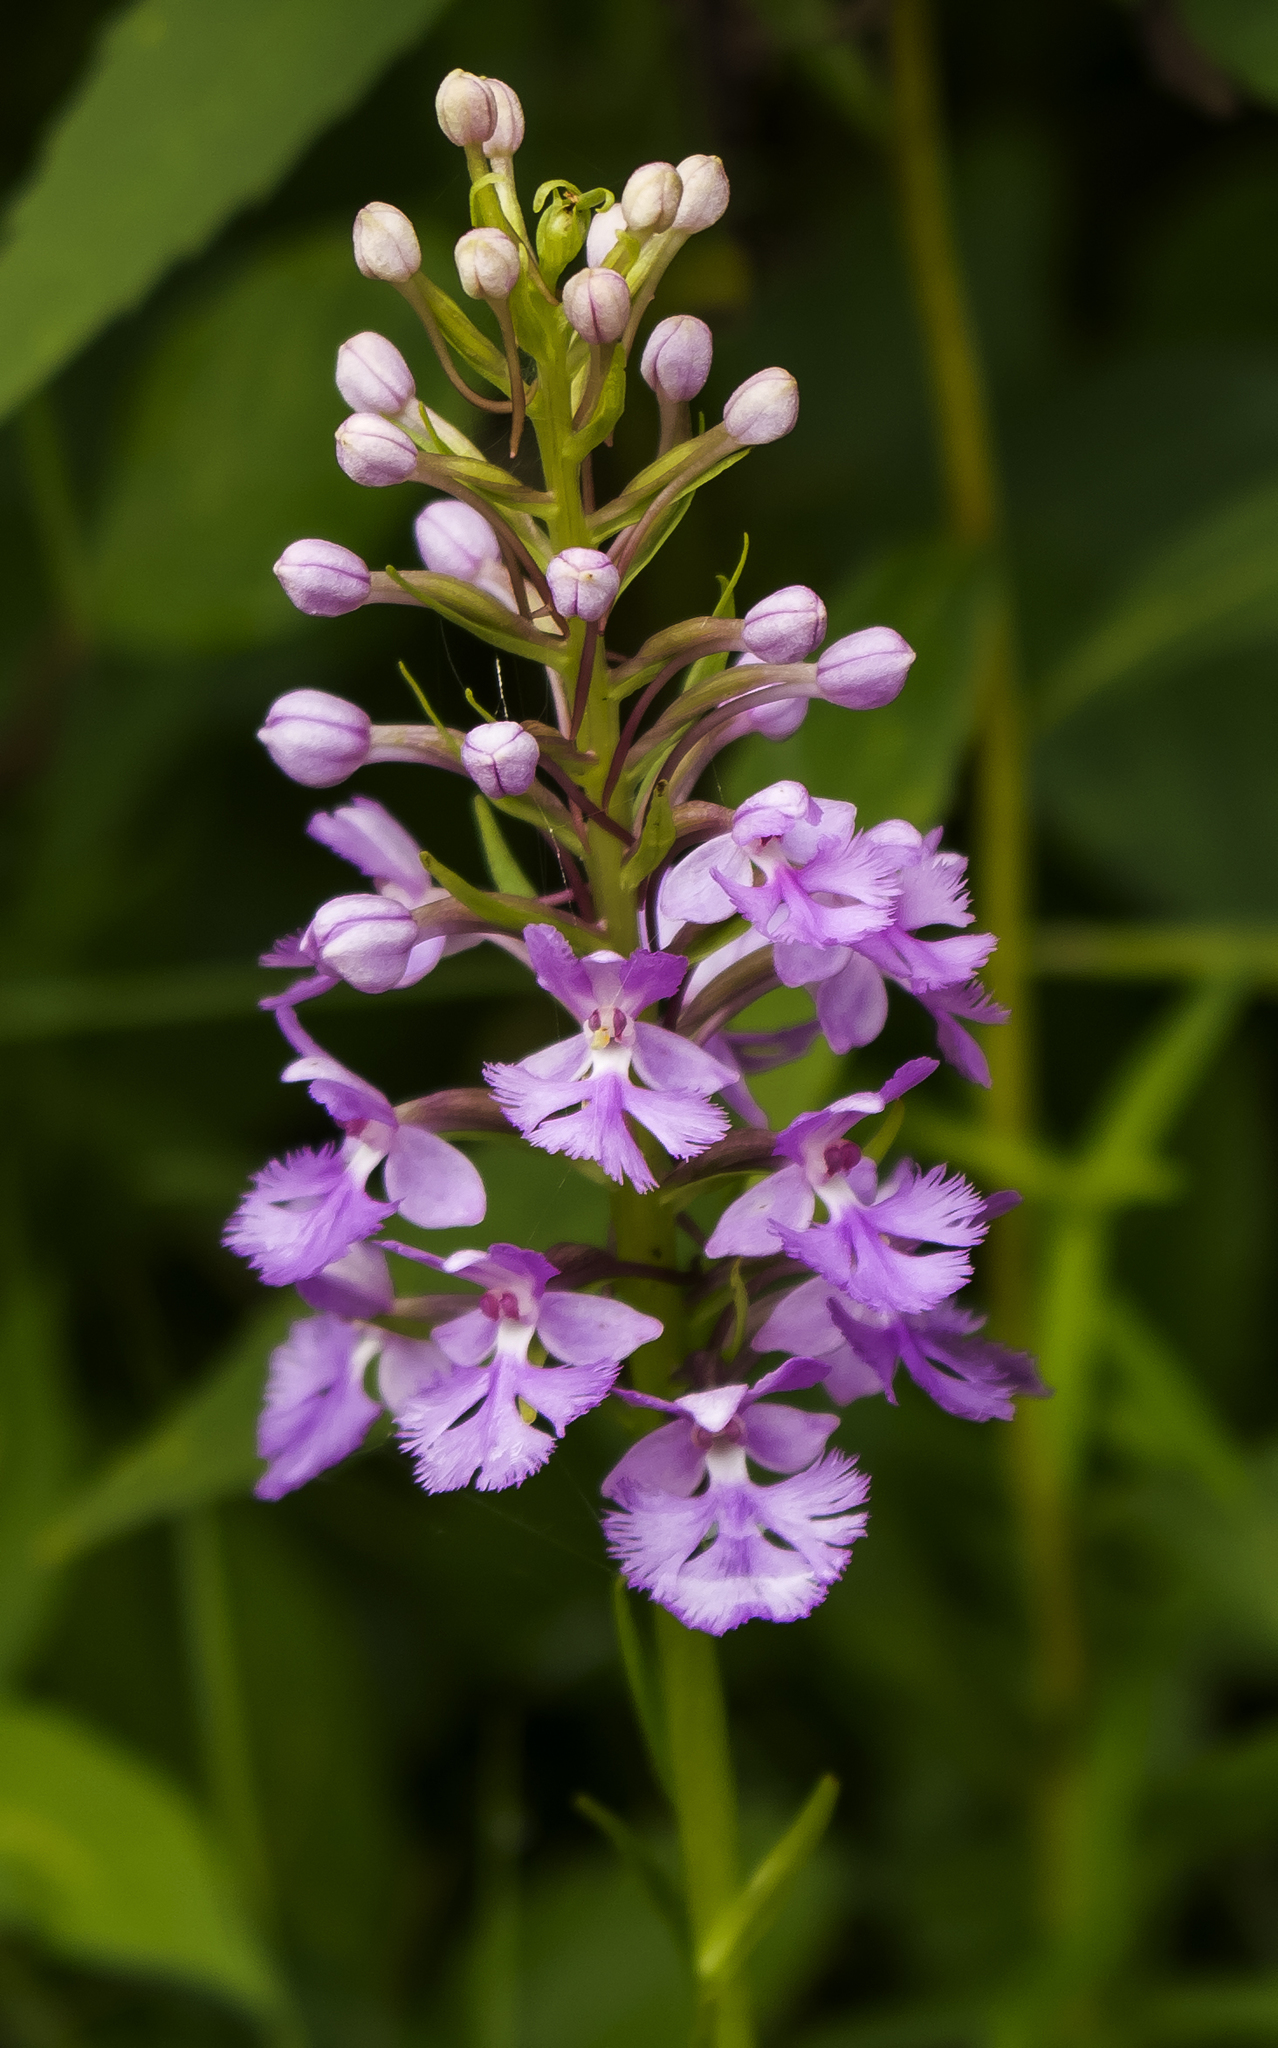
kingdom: Plantae
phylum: Tracheophyta
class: Liliopsida
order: Asparagales
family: Orchidaceae
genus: Platanthera
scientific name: Platanthera psycodes
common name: Lesser purple fringed orchid
